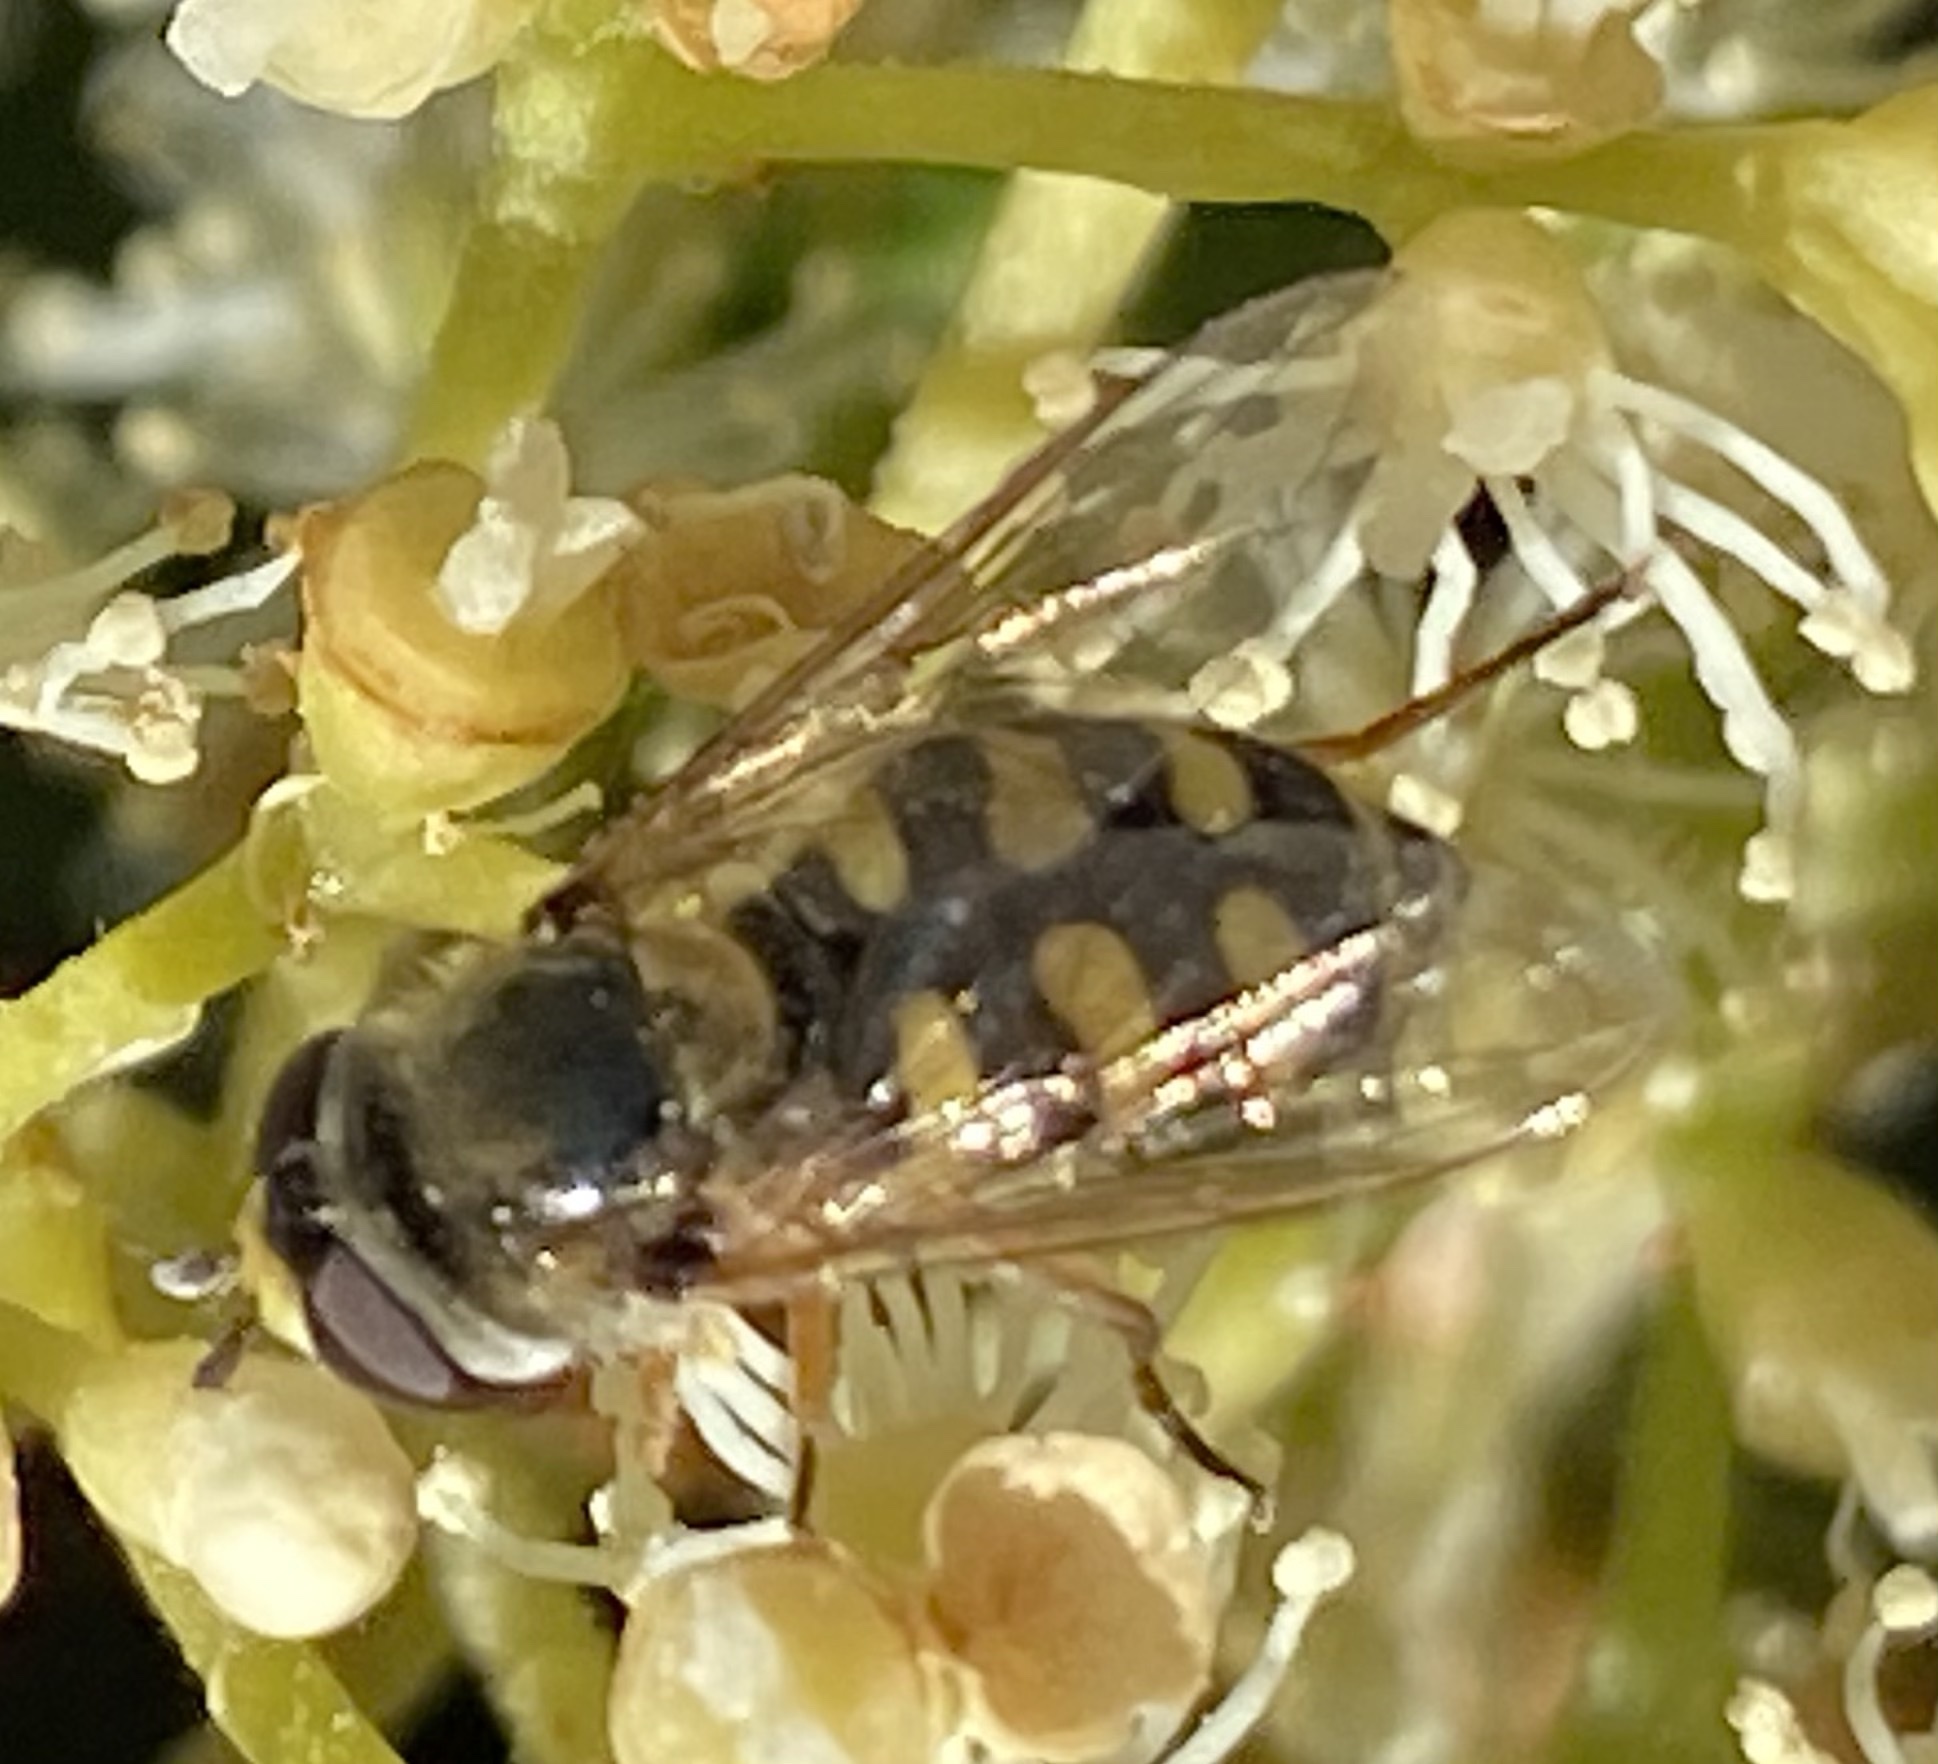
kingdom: Animalia
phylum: Arthropoda
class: Insecta
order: Diptera
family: Syrphidae
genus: Eupeodes
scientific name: Eupeodes corollae
